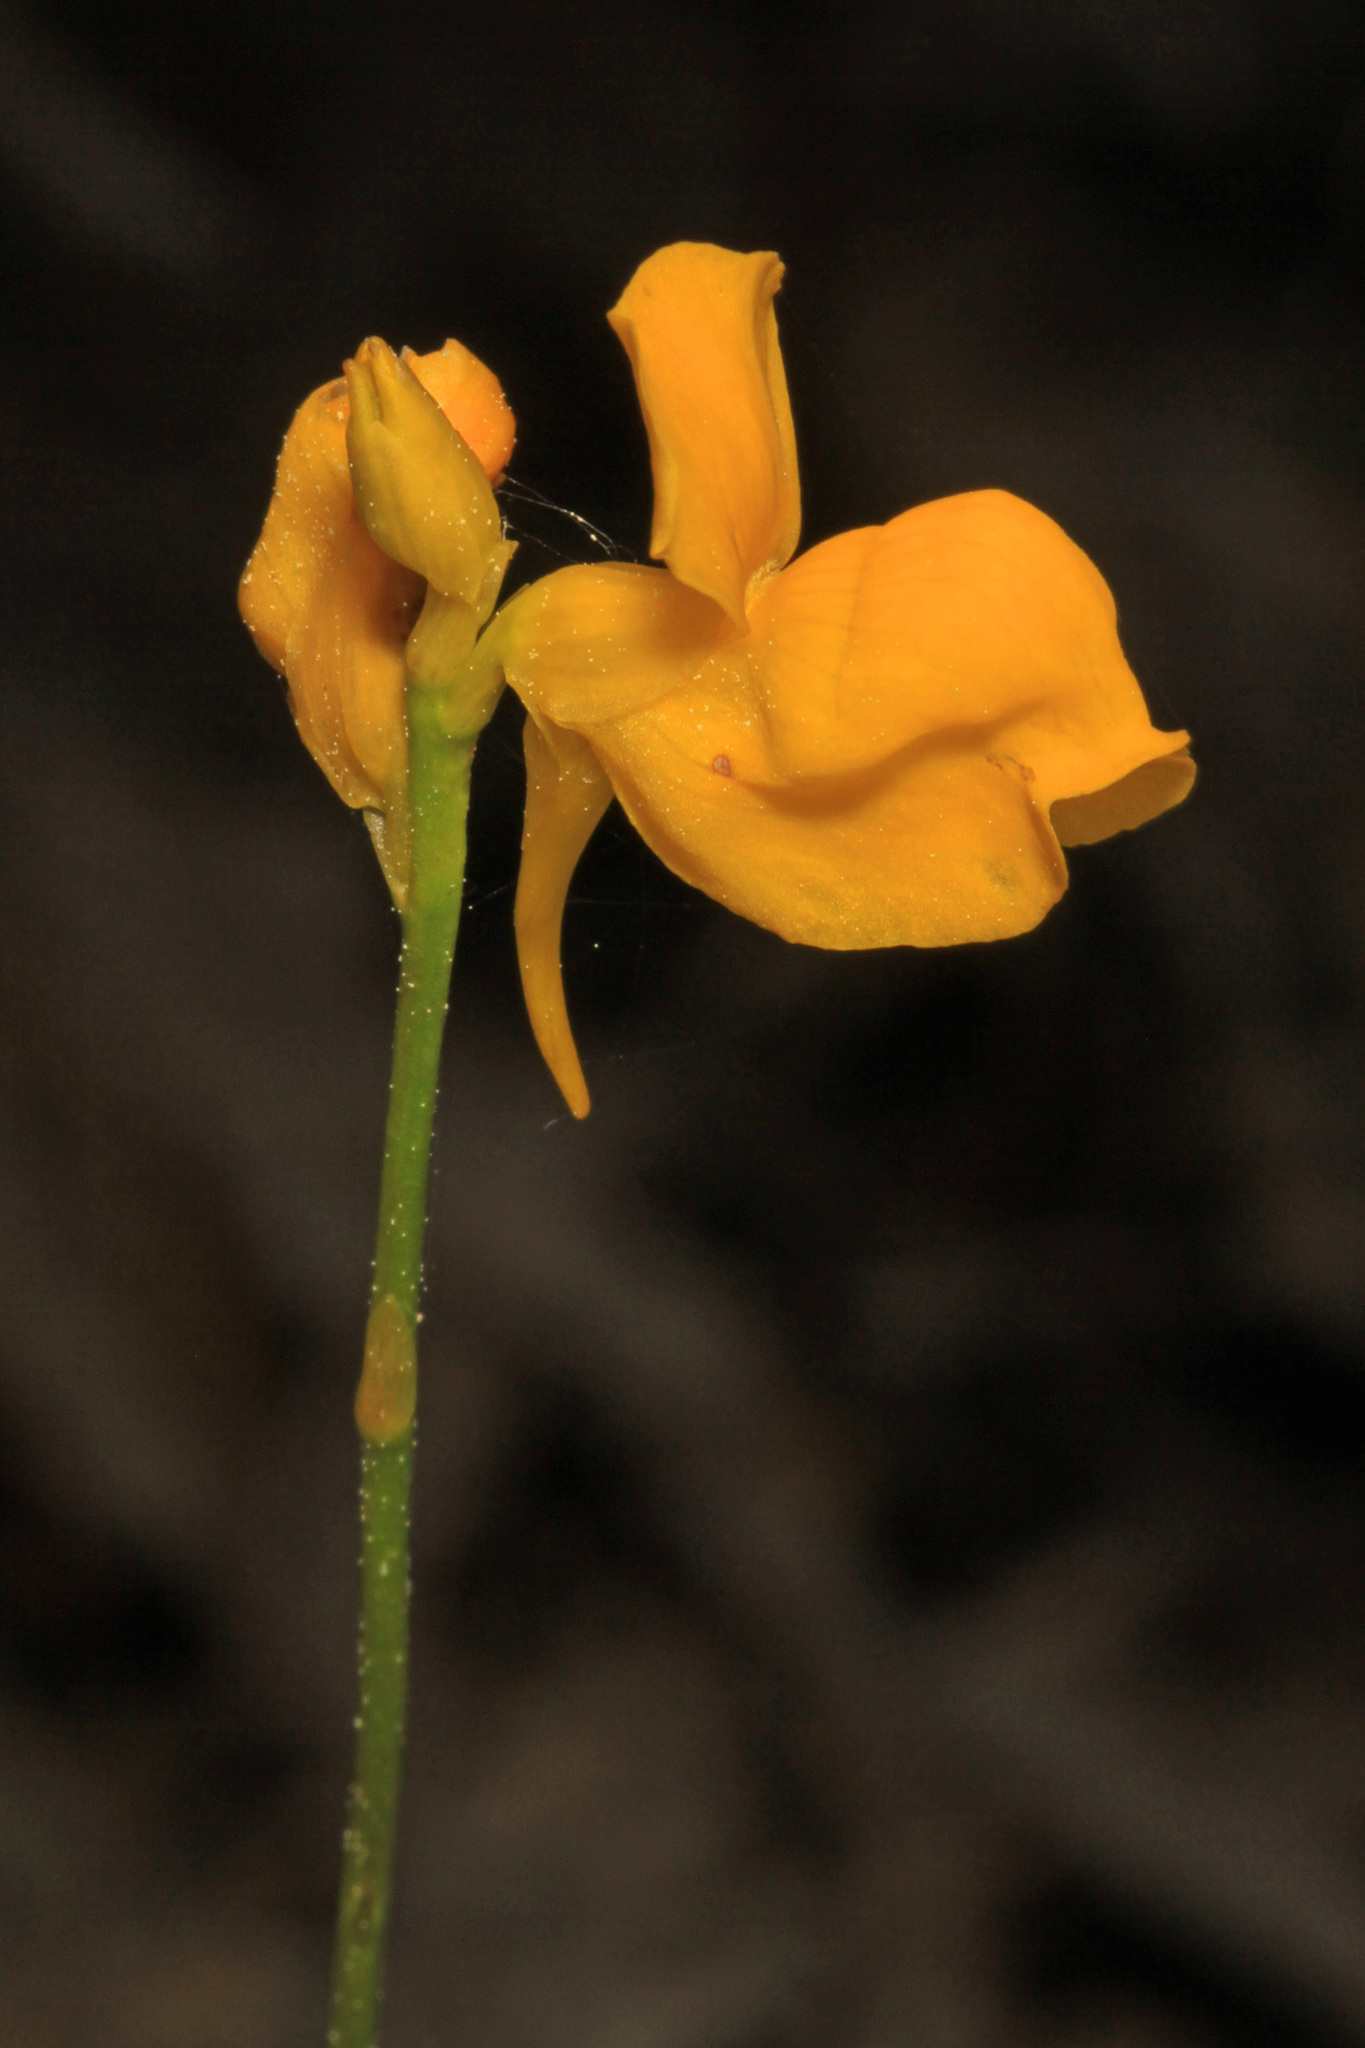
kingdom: Plantae
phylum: Tracheophyta
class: Magnoliopsida
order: Lamiales
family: Lentibulariaceae
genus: Utricularia
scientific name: Utricularia cornuta
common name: Horned bladderwort
